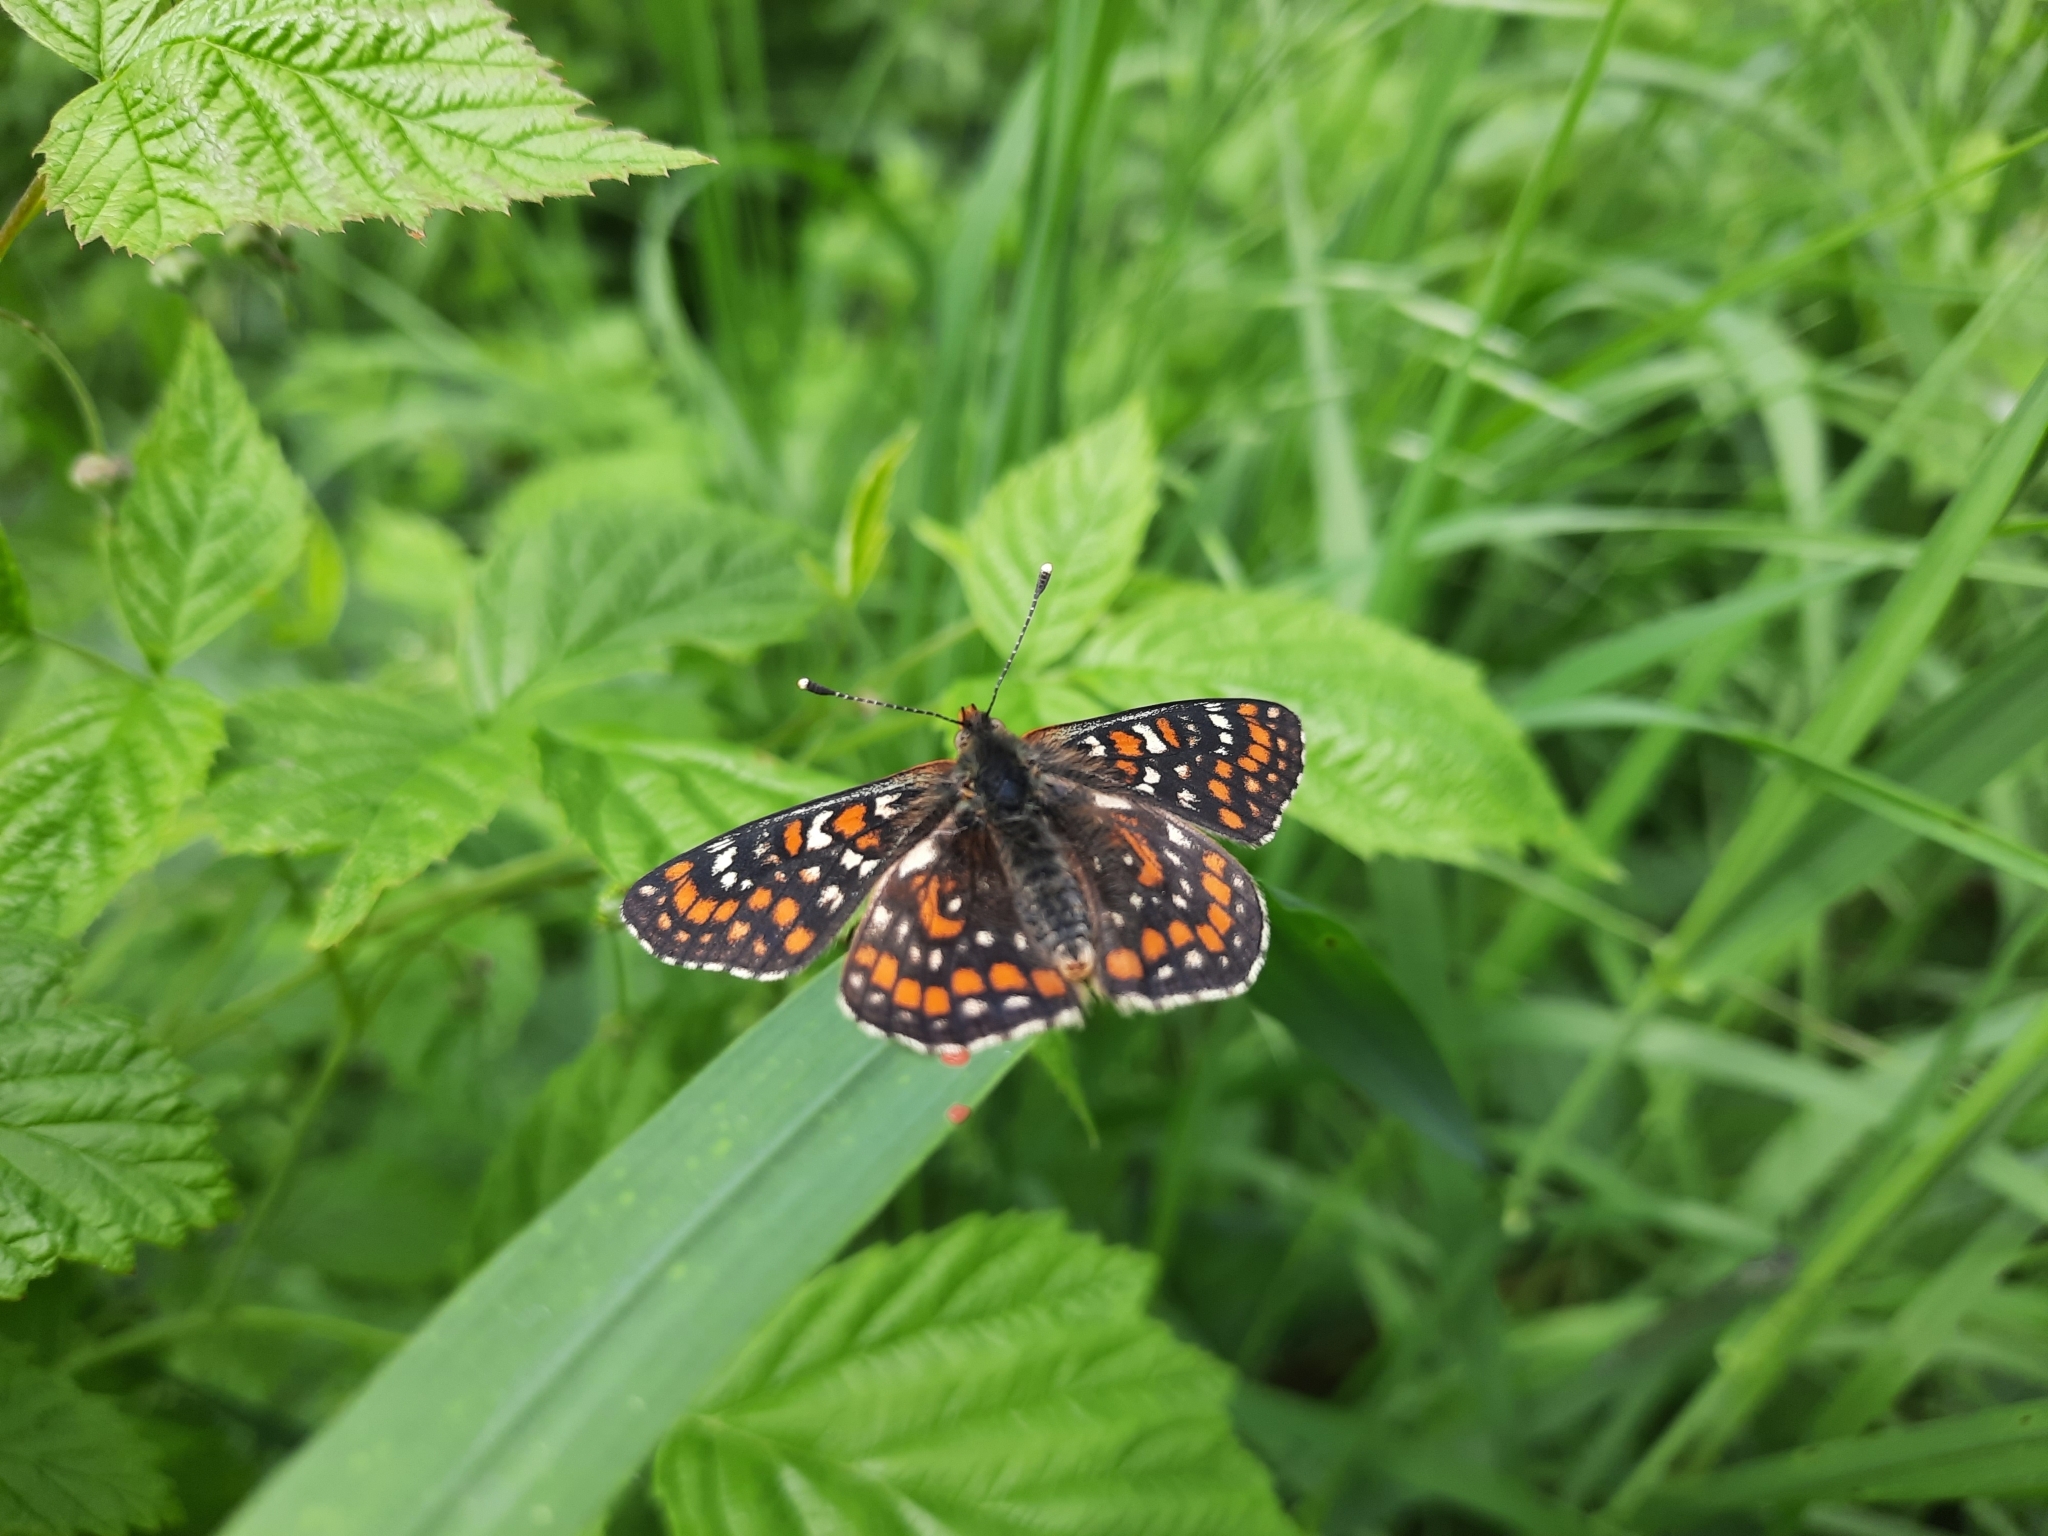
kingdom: Animalia
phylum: Arthropoda
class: Insecta
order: Lepidoptera
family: Nymphalidae
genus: Euphydryas
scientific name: Euphydryas maturna
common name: Scarce fritillary
